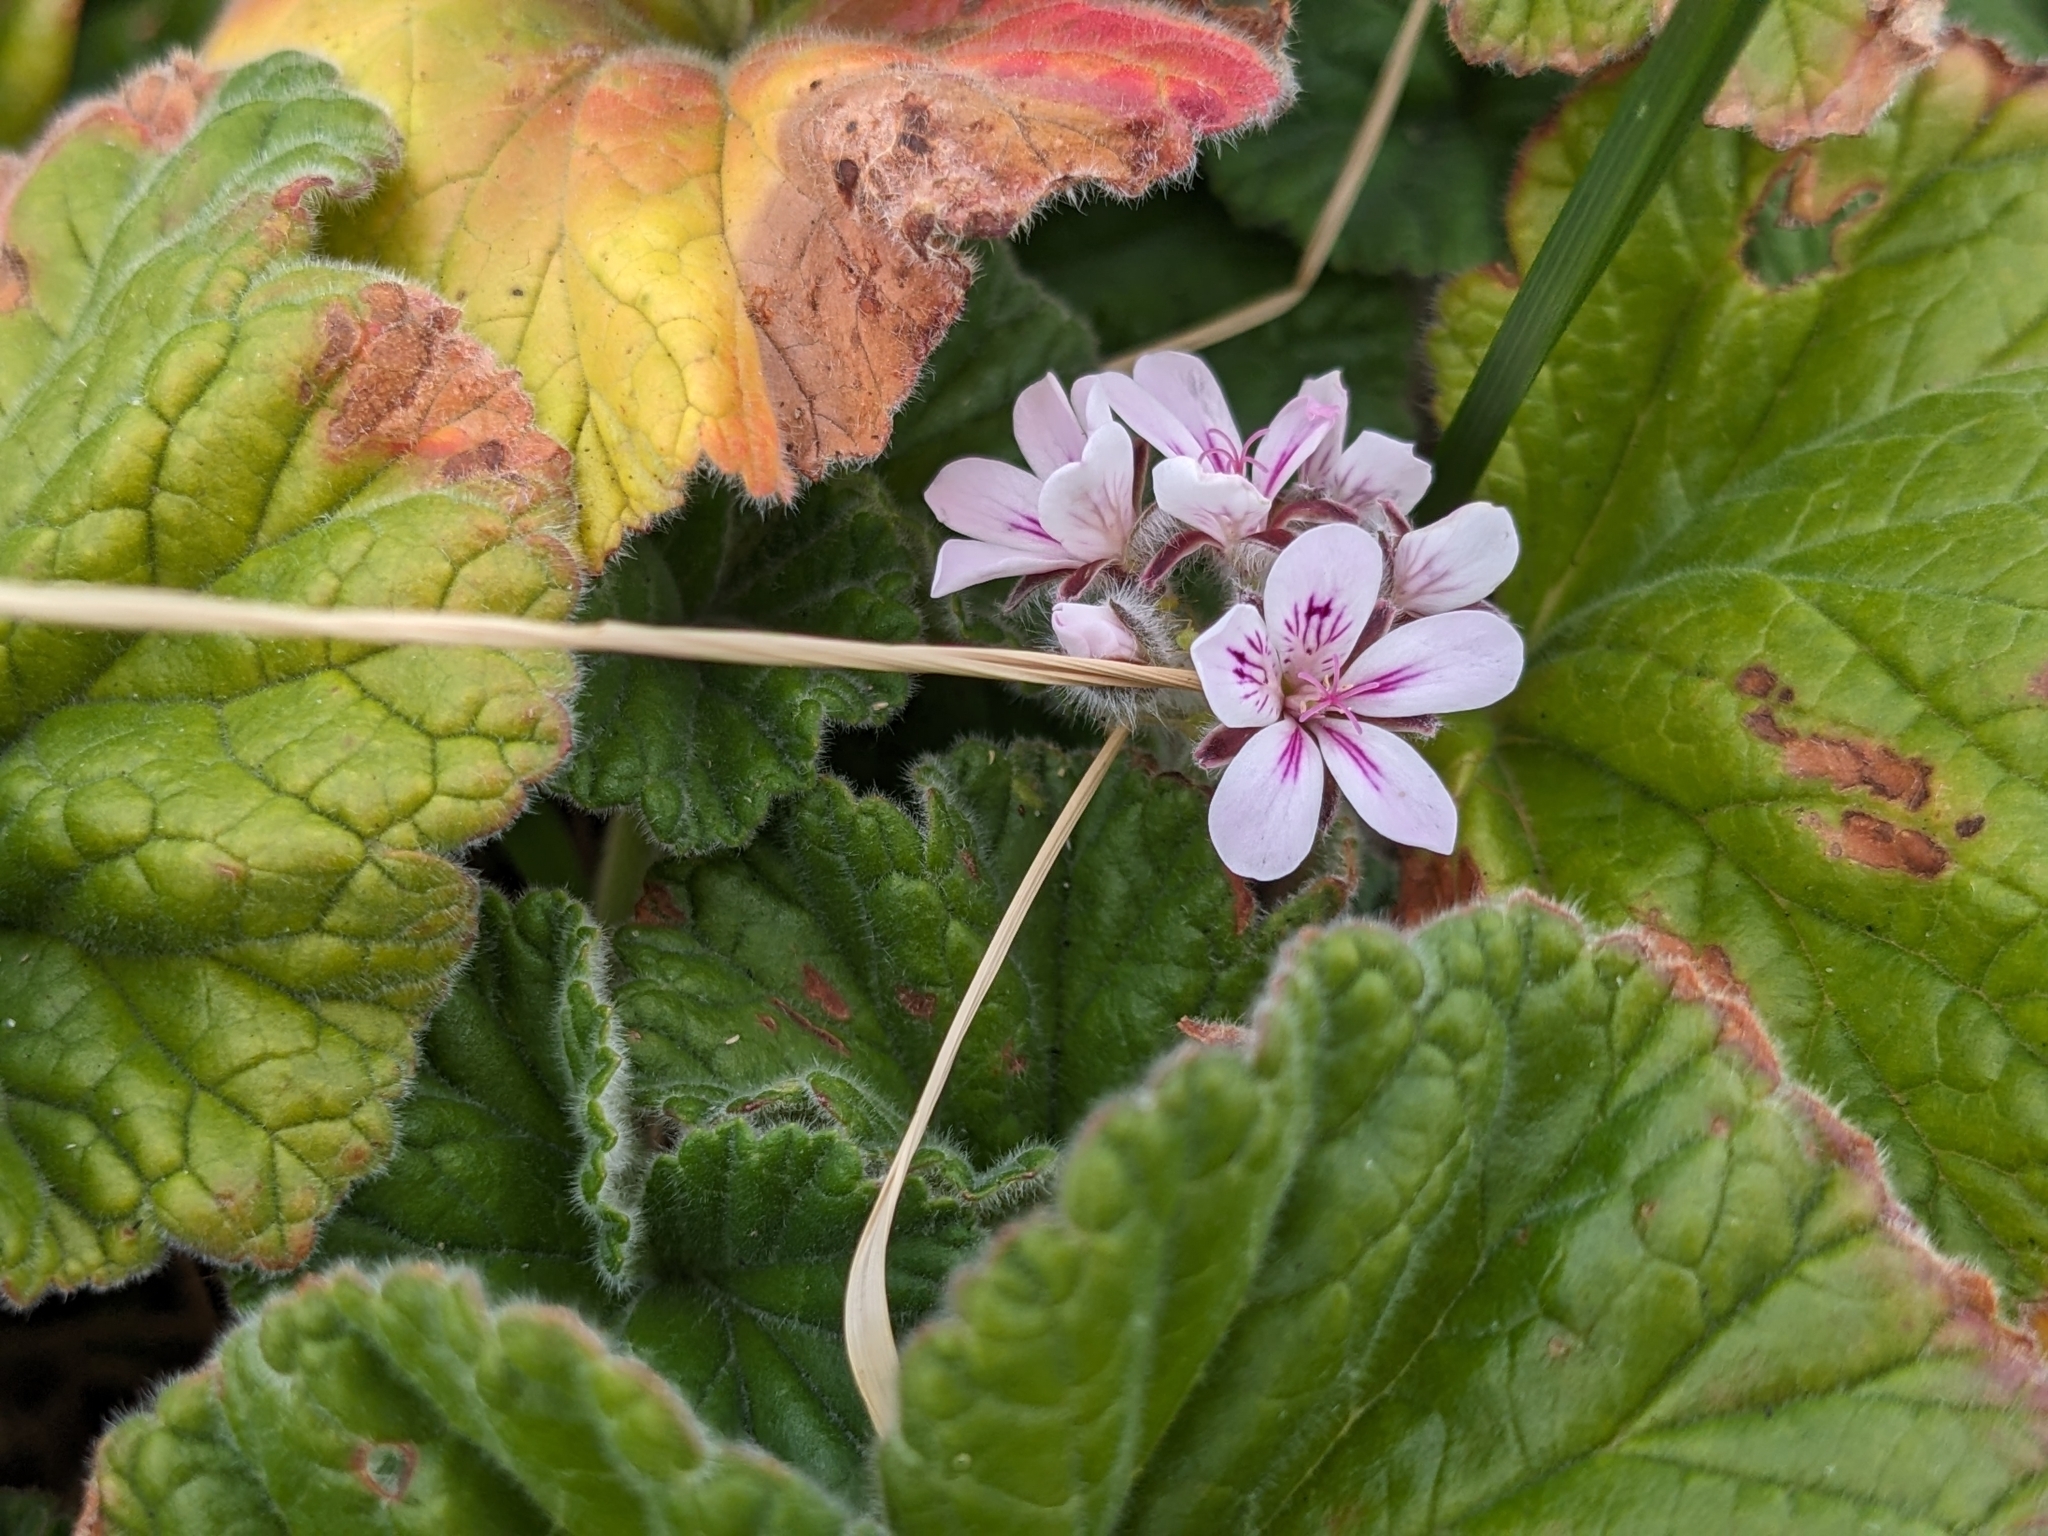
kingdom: Plantae
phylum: Tracheophyta
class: Magnoliopsida
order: Geraniales
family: Geraniaceae
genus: Pelargonium
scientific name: Pelargonium australe
